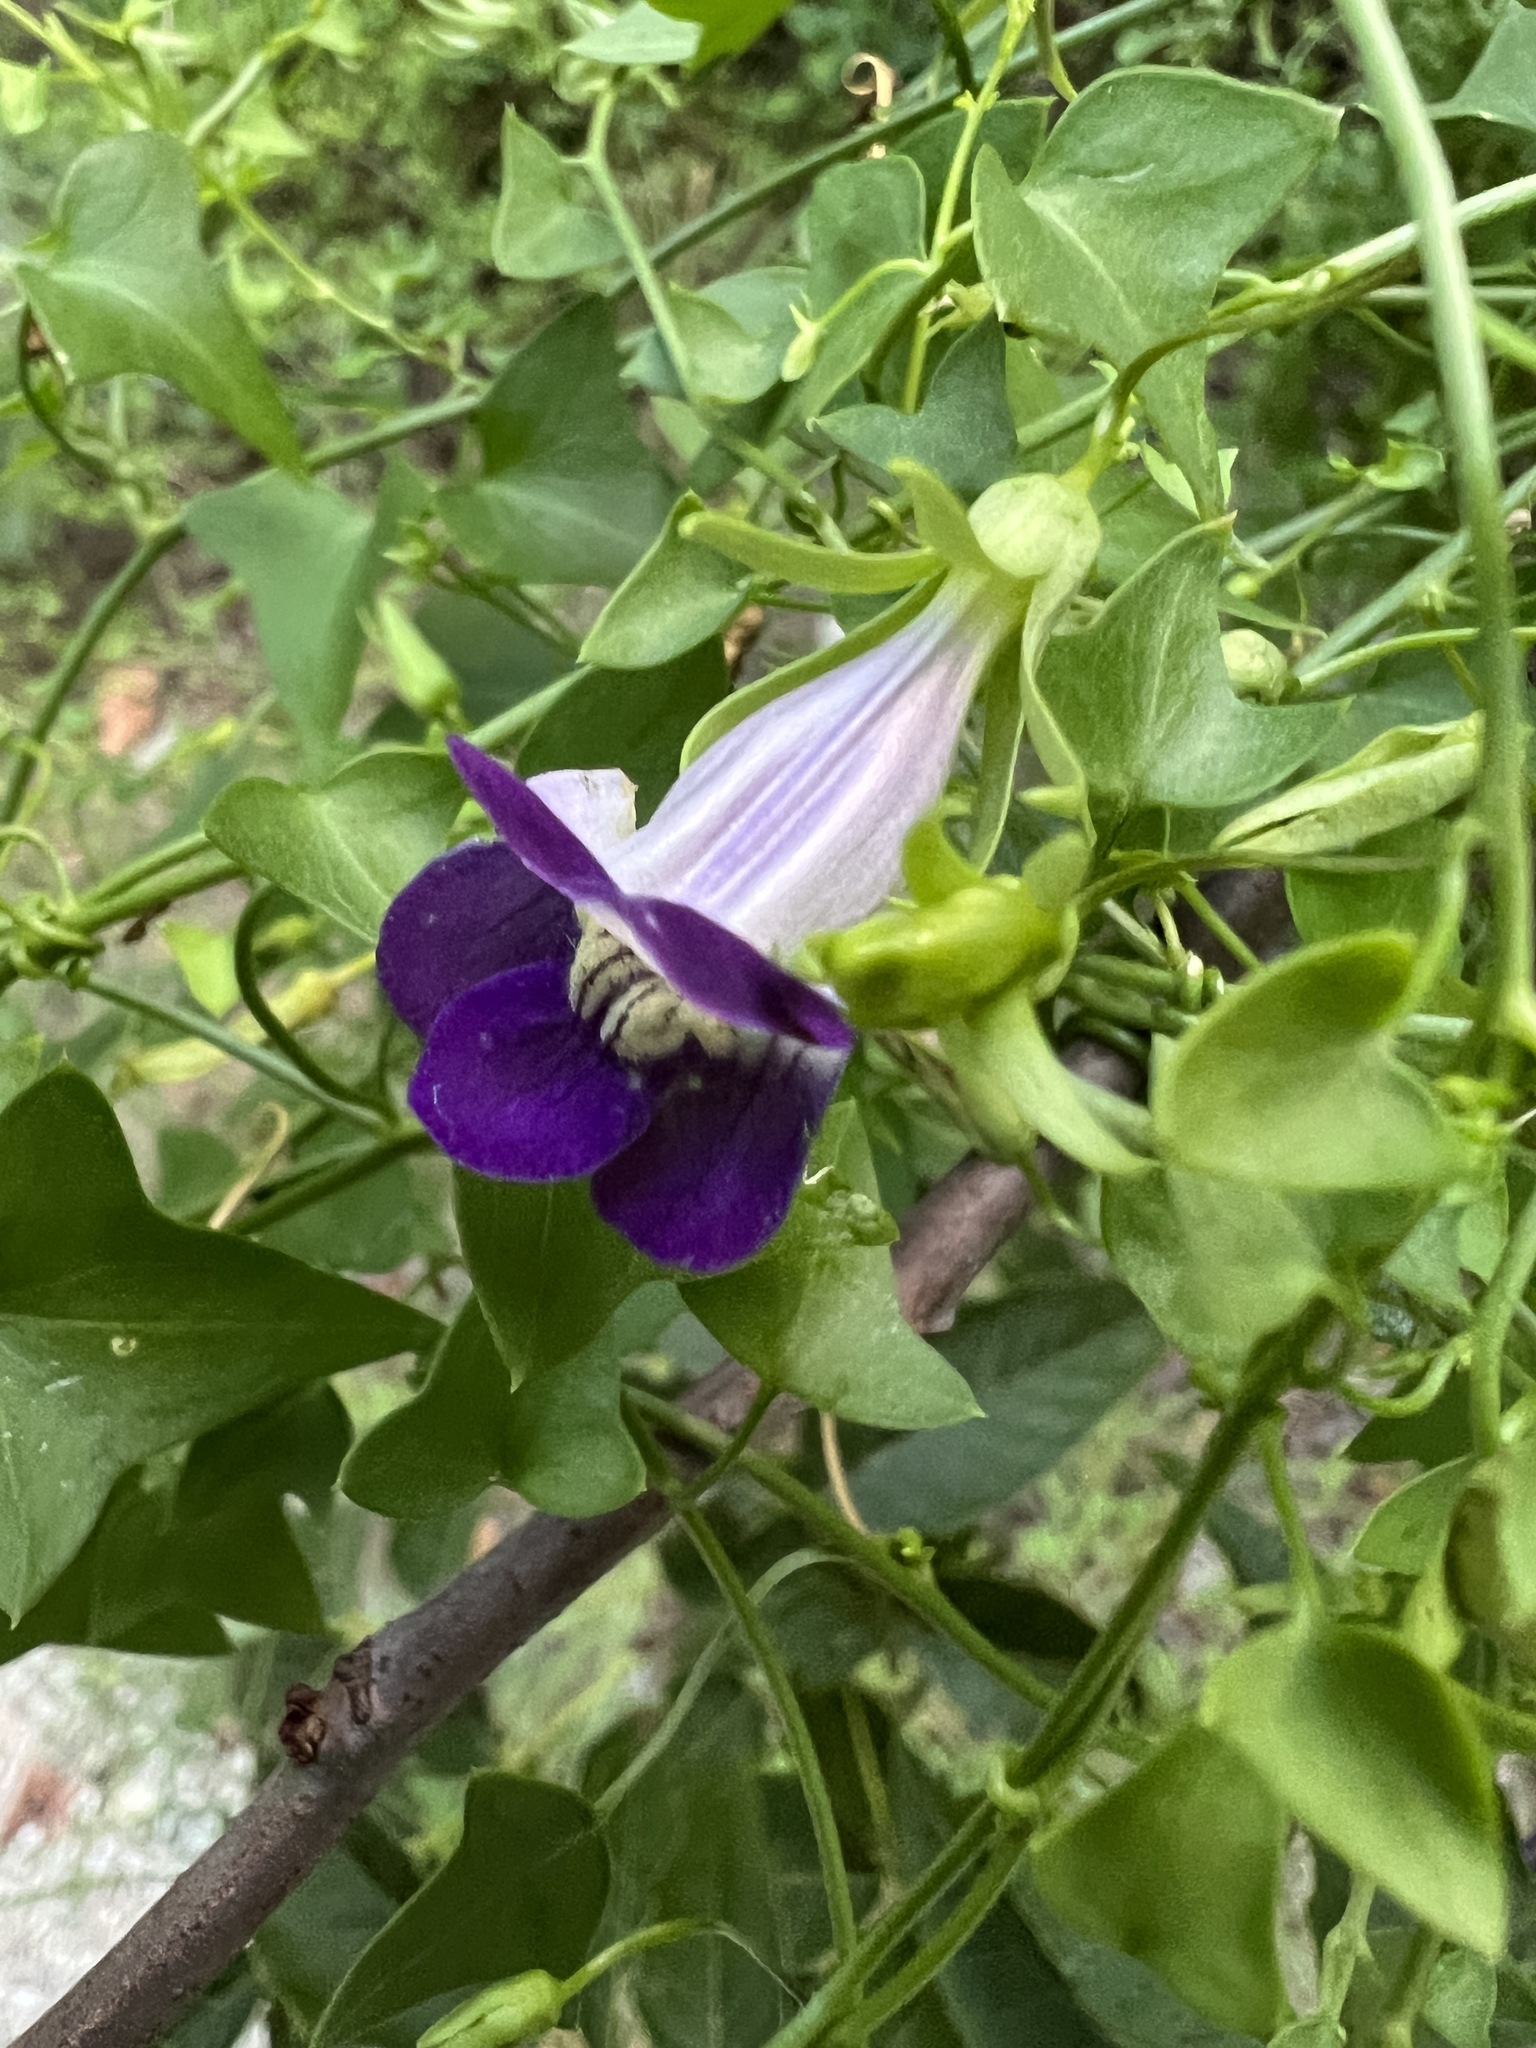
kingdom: Plantae
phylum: Tracheophyta
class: Magnoliopsida
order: Lamiales
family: Plantaginaceae
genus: Maurandella
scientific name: Maurandella antirrhiniflora
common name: Violet twining-snapdragon
